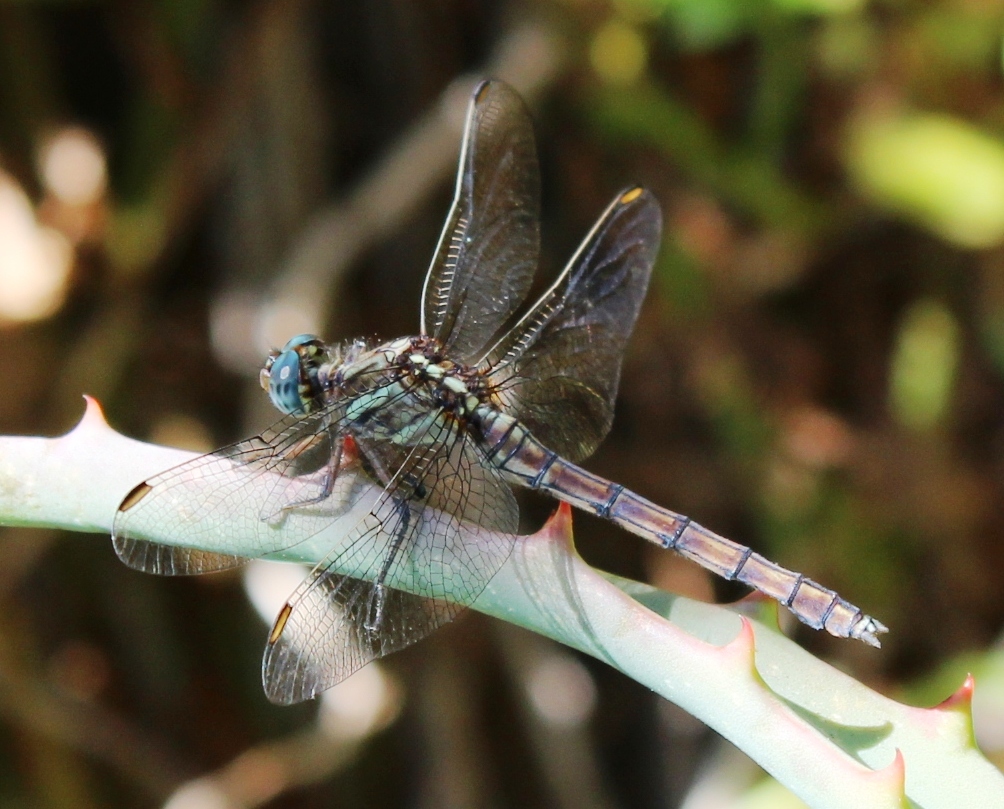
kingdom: Animalia
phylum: Arthropoda
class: Insecta
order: Odonata
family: Libellulidae
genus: Orthetrum
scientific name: Orthetrum caffrum
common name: Two-striped skimmer
